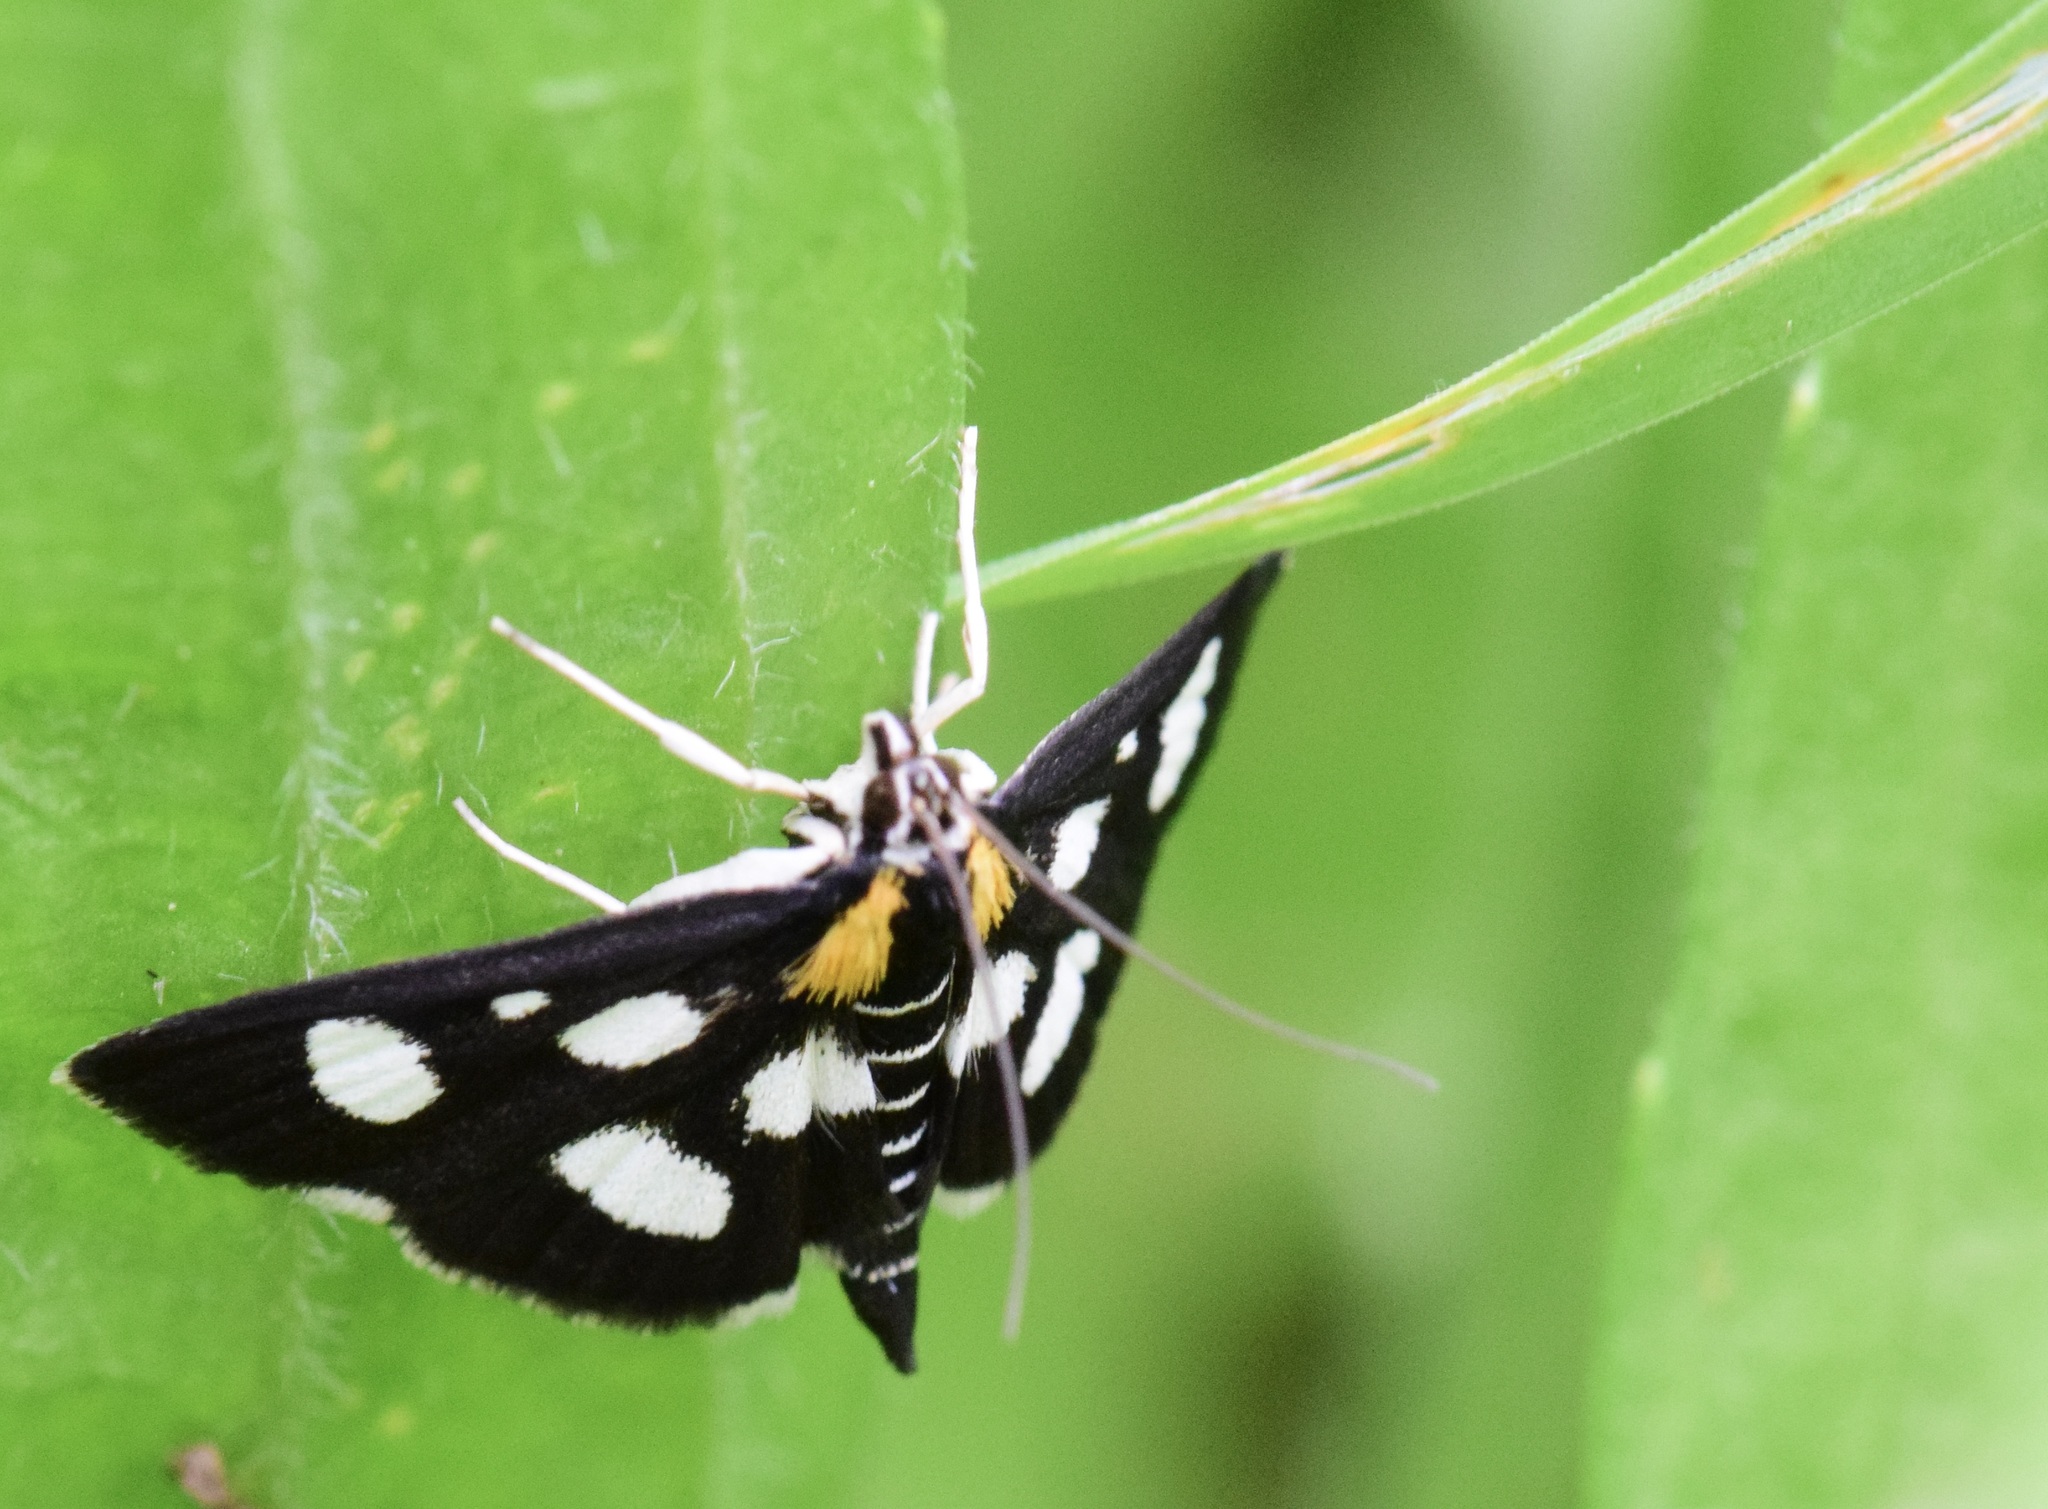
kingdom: Animalia
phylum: Arthropoda
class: Insecta
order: Lepidoptera
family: Crambidae
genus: Anania
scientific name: Anania funebris
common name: White-spotted sable moth
